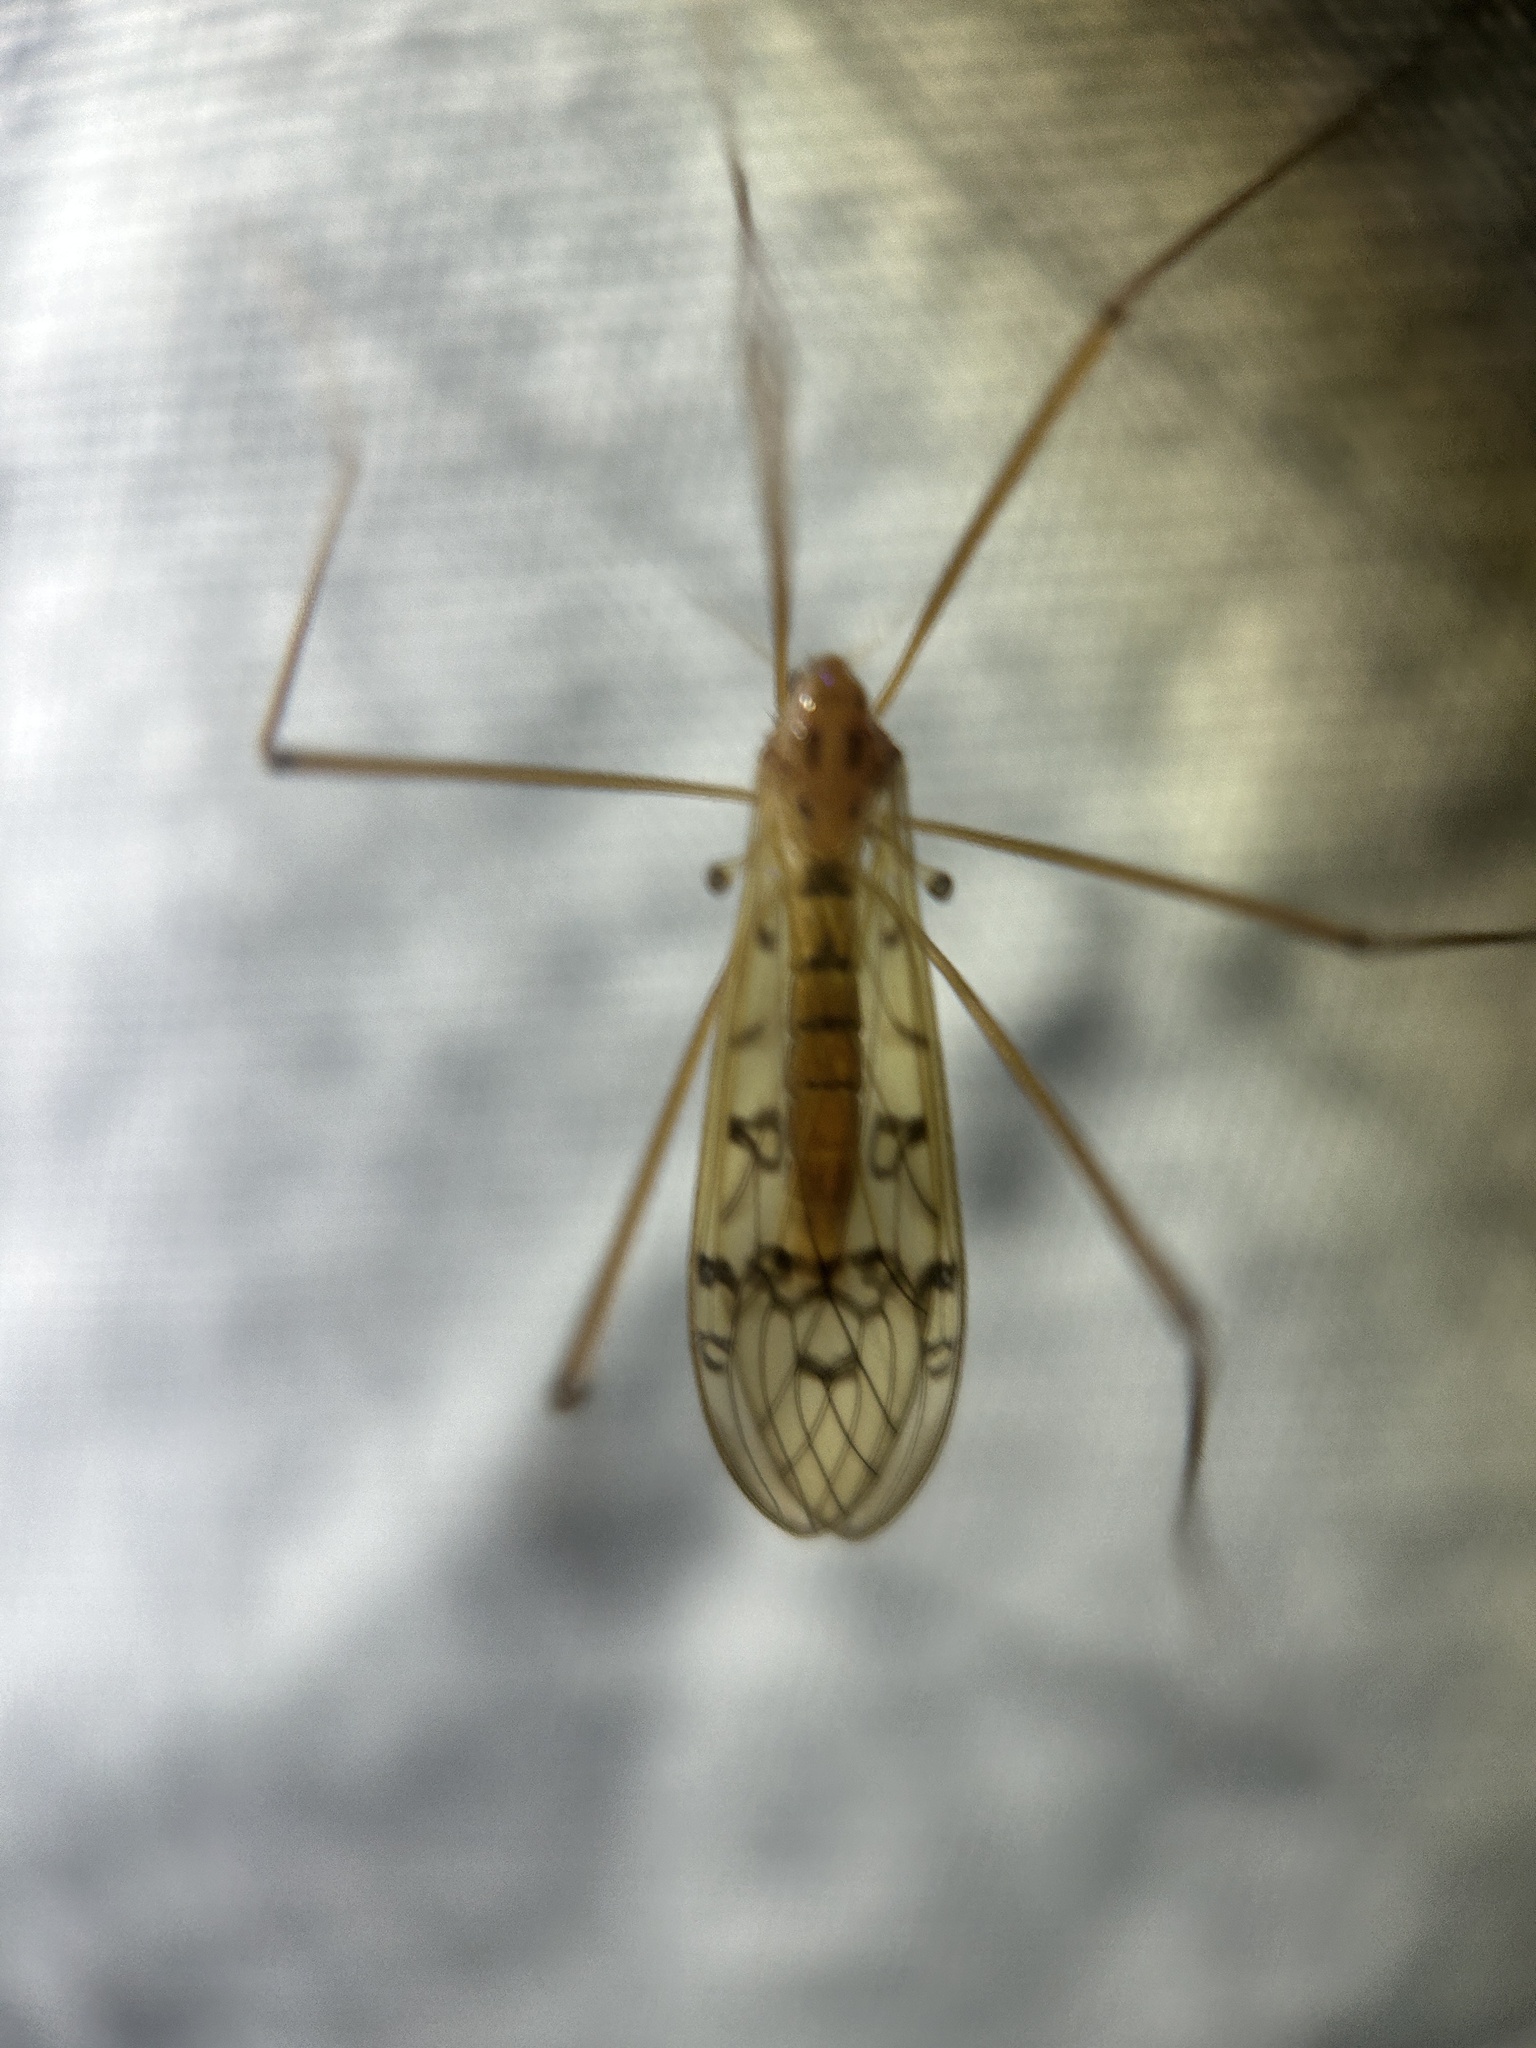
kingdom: Animalia
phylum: Arthropoda
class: Insecta
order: Diptera
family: Limoniidae
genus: Metalimnobia
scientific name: Metalimnobia triocellata
